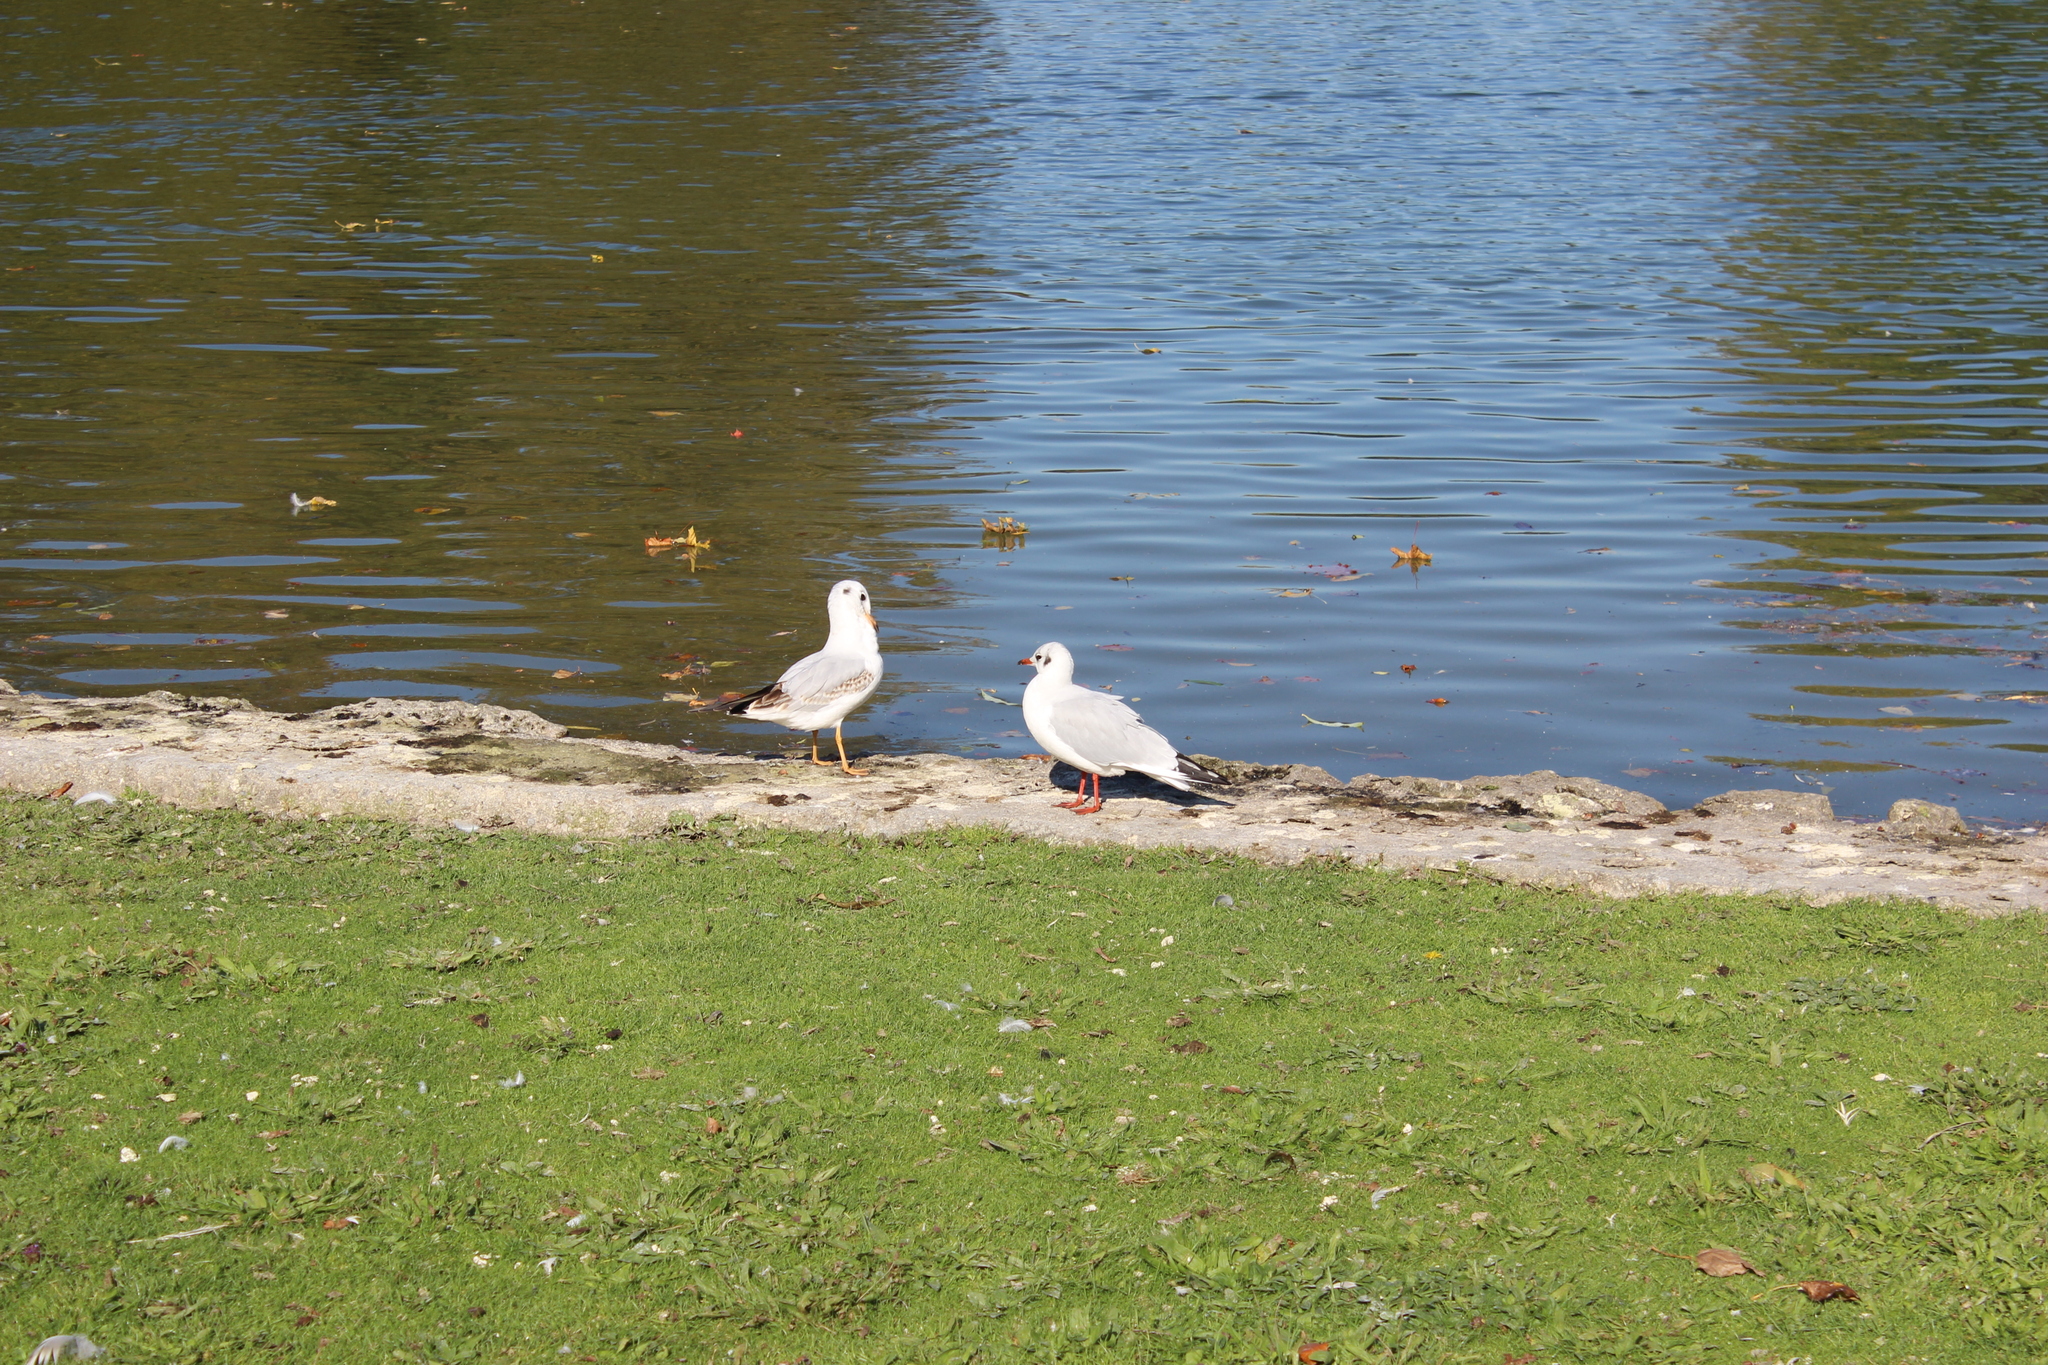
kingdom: Animalia
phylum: Chordata
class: Aves
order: Charadriiformes
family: Laridae
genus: Chroicocephalus
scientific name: Chroicocephalus ridibundus
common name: Black-headed gull
